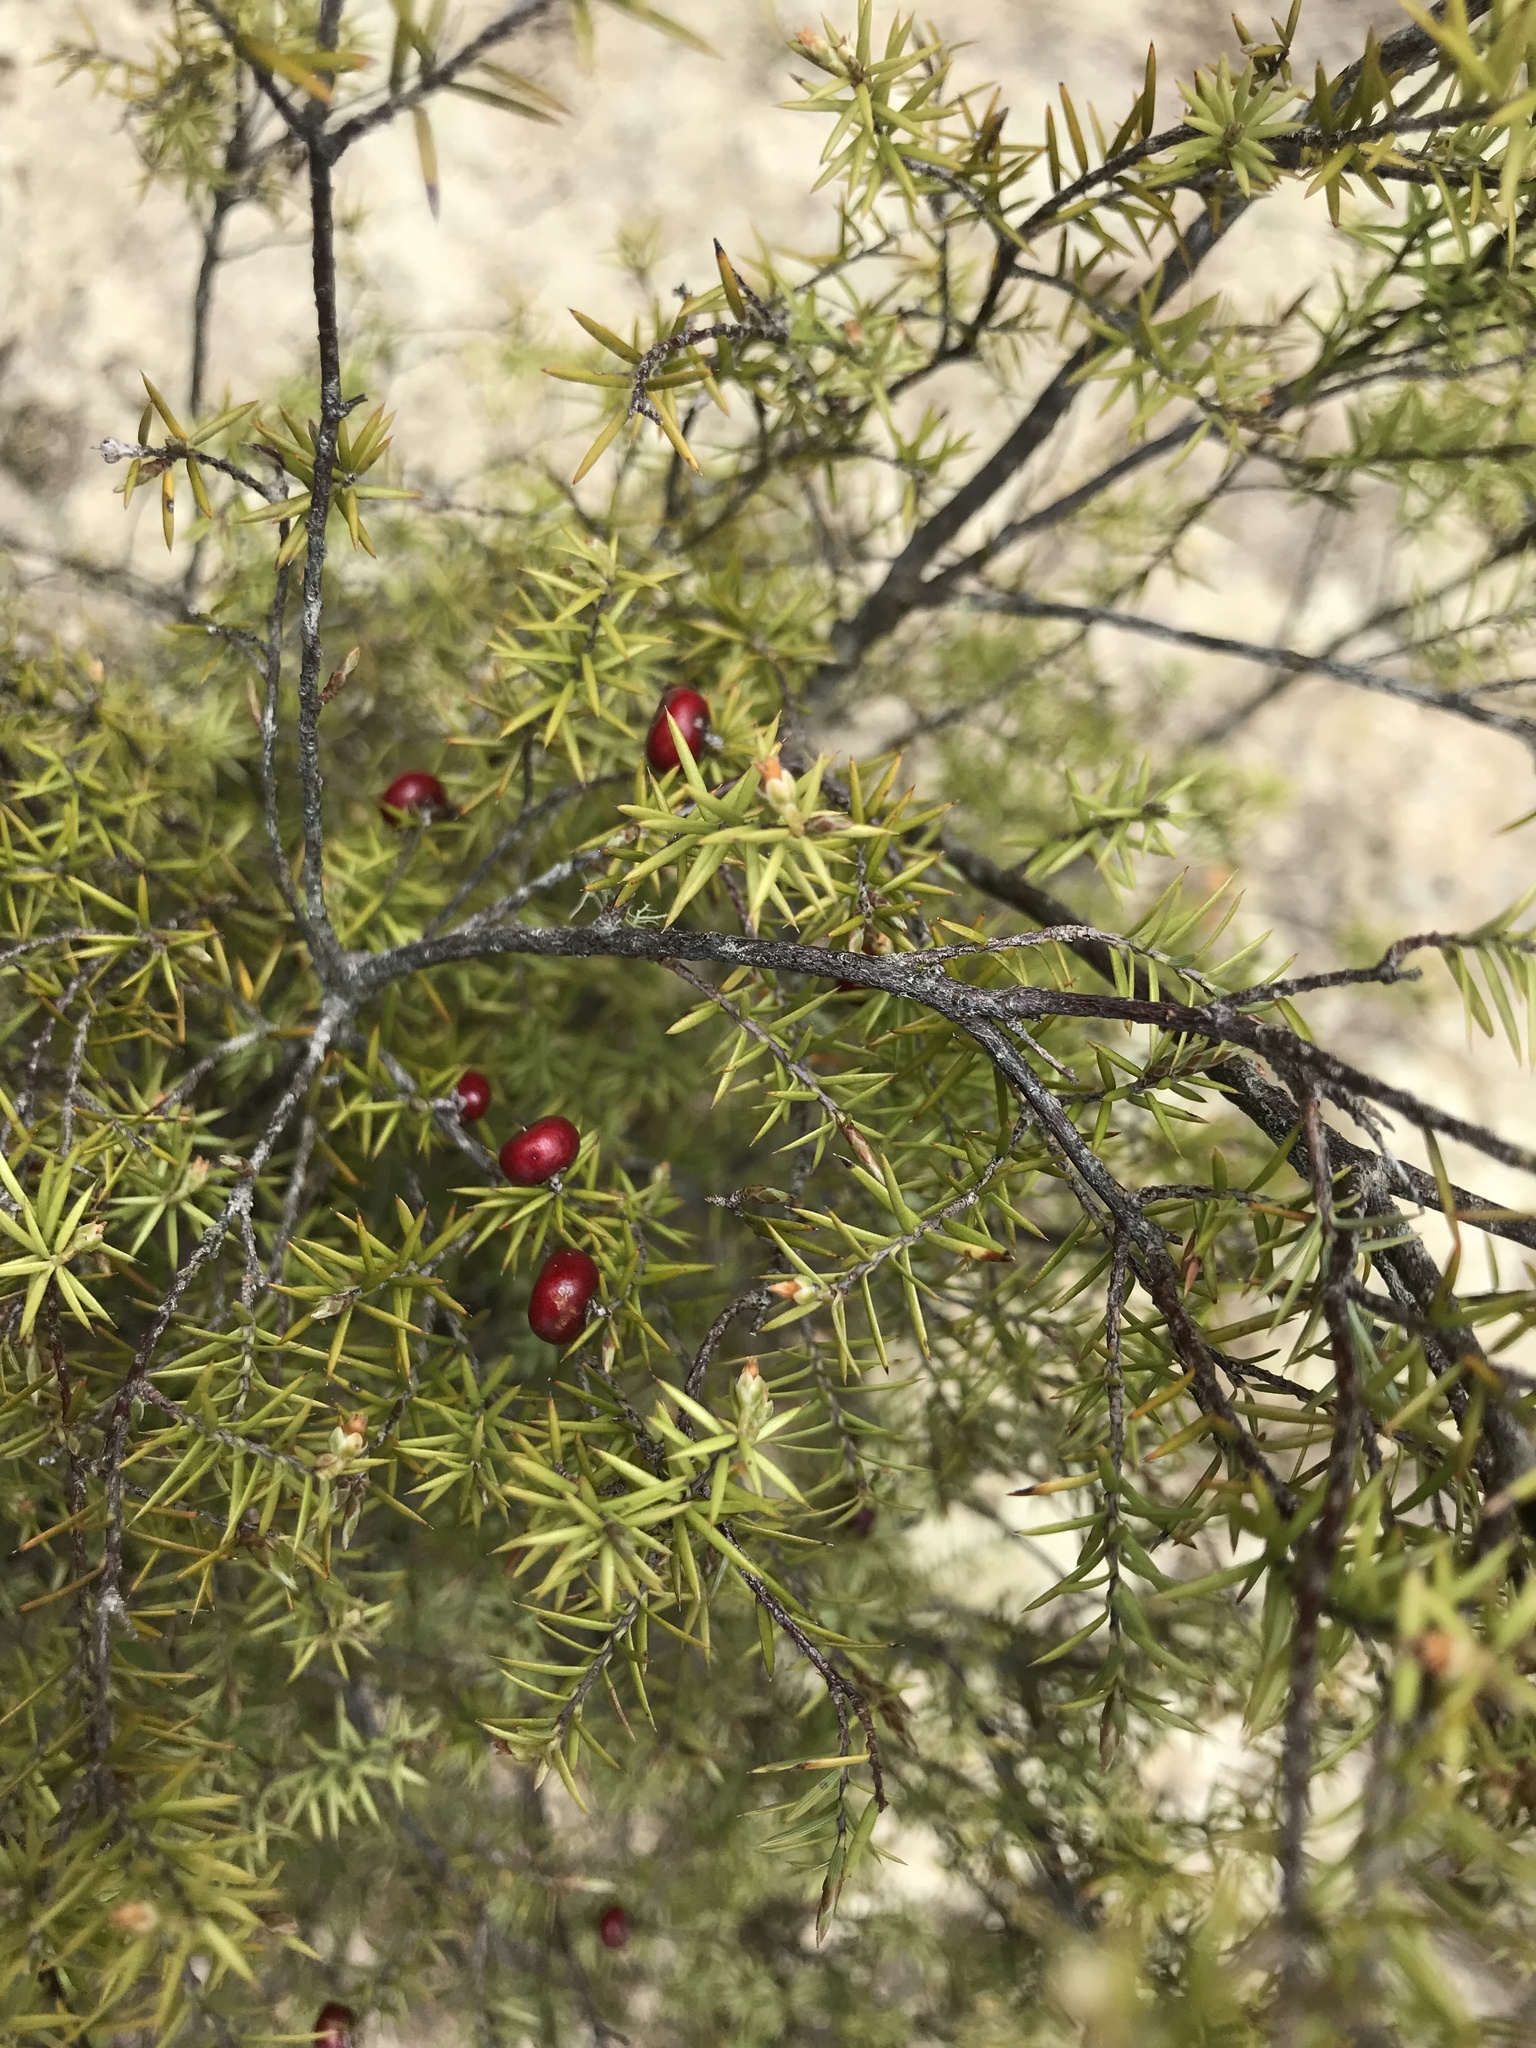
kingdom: Plantae
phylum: Tracheophyta
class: Magnoliopsida
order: Ericales
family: Ericaceae
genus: Leptecophylla
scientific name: Leptecophylla juniperina
